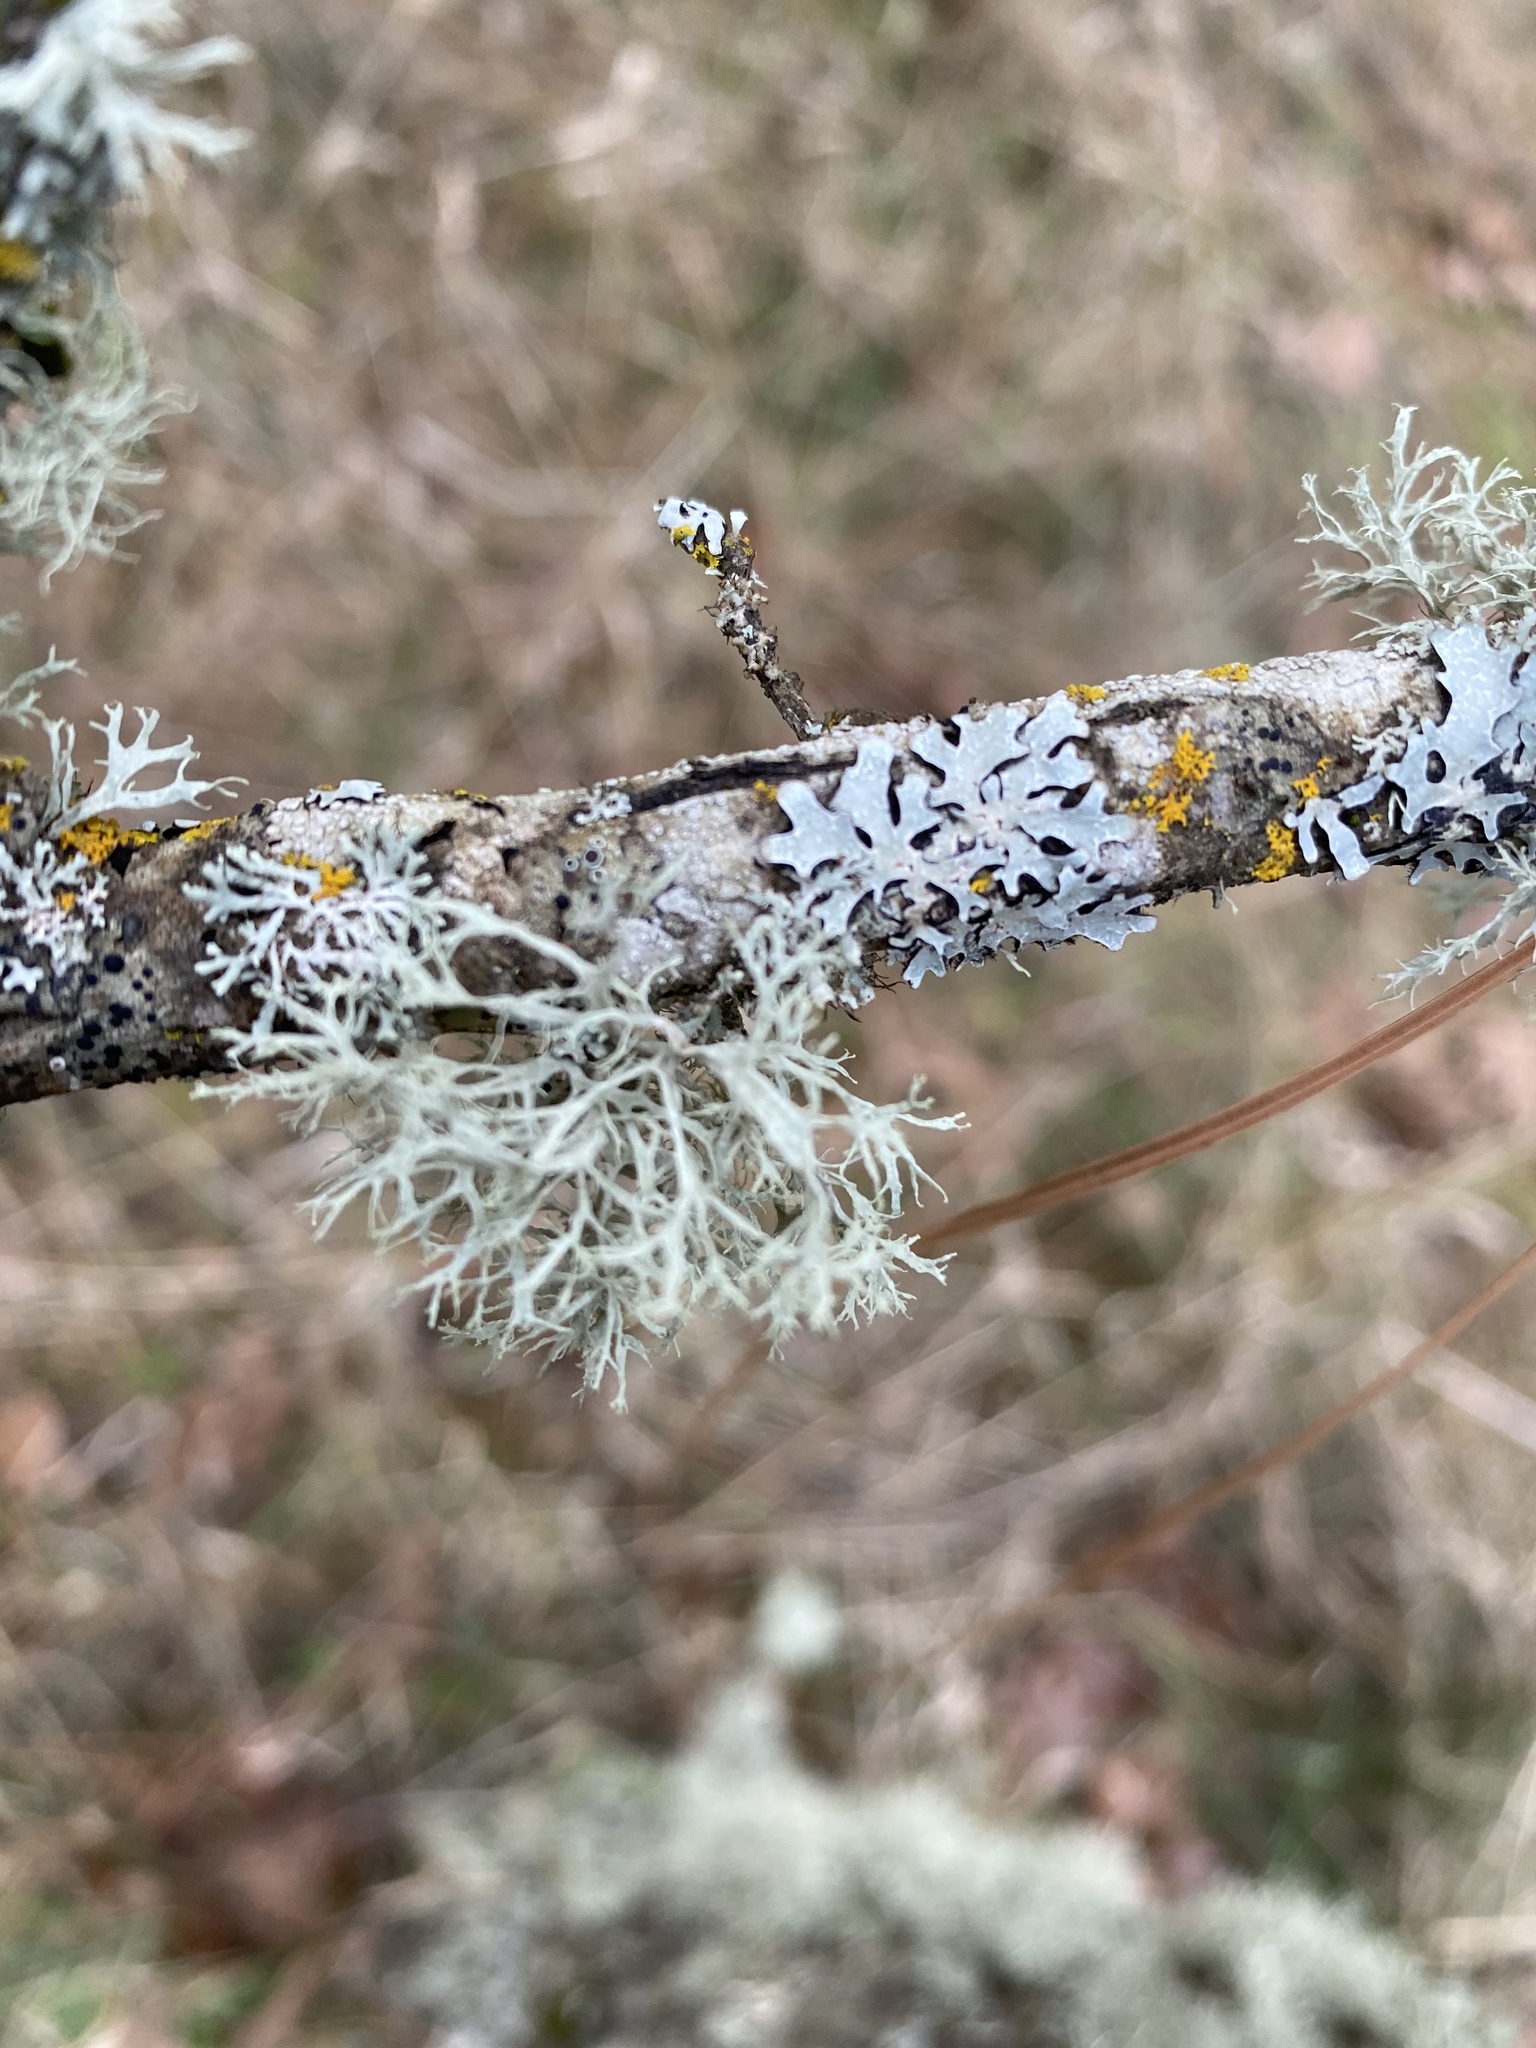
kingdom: Fungi
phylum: Ascomycota
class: Lecanoromycetes
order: Lecanorales
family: Parmeliaceae
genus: Evernia
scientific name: Evernia prunastri
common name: Oak moss
